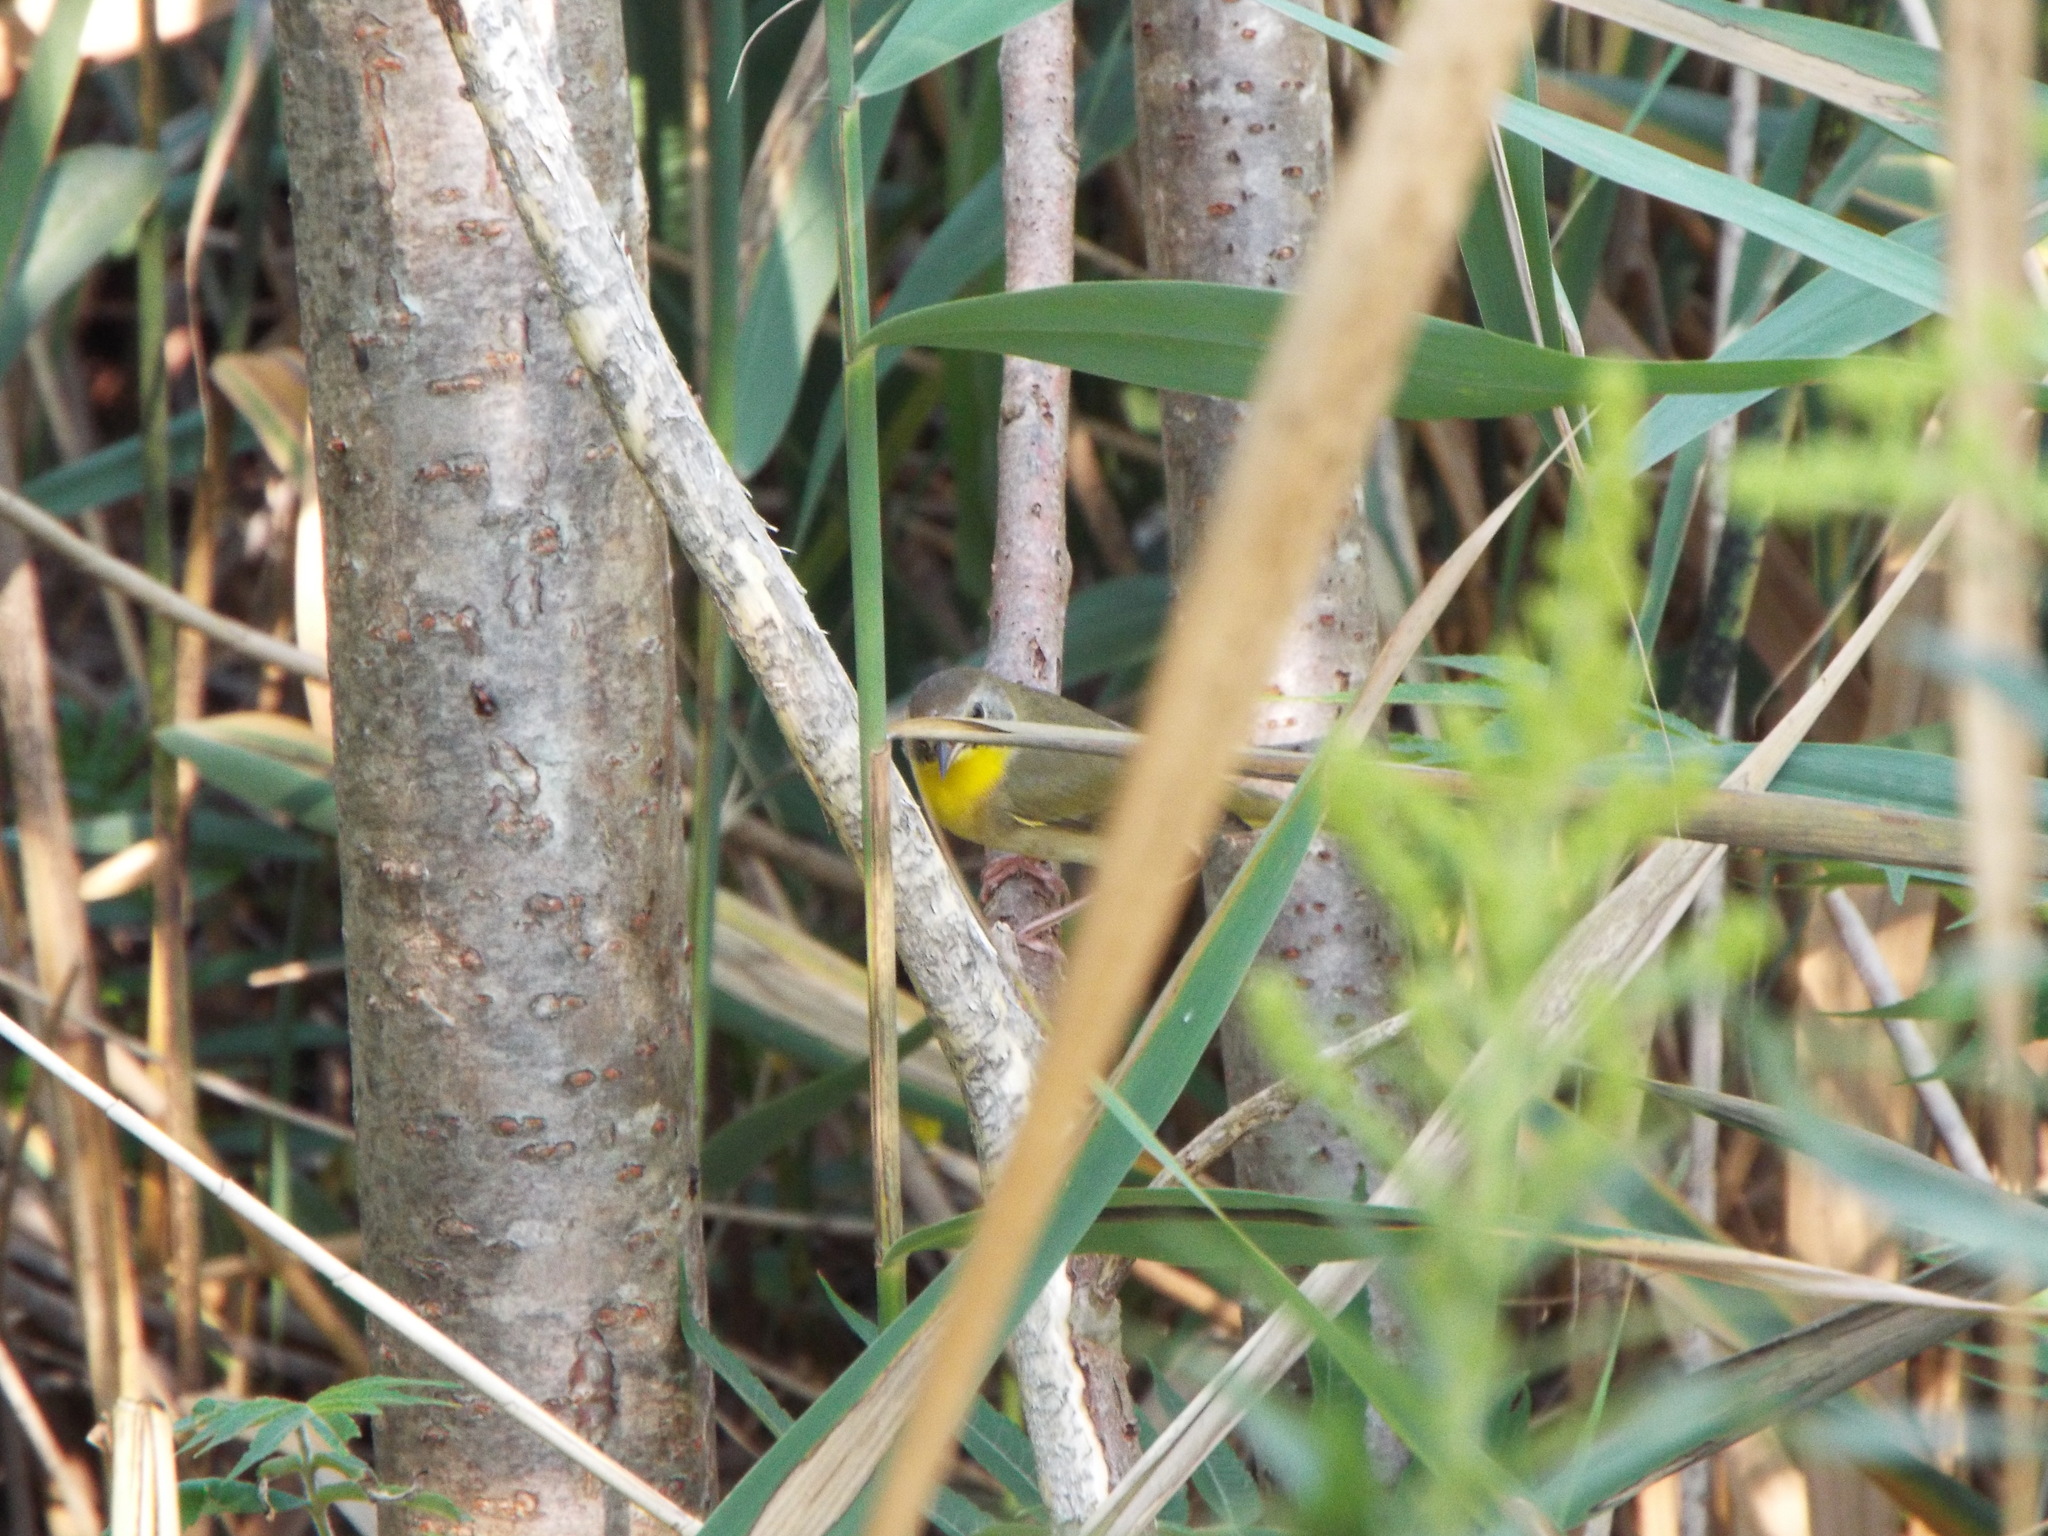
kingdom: Animalia
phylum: Chordata
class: Aves
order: Passeriformes
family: Parulidae
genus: Geothlypis
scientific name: Geothlypis trichas
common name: Common yellowthroat
